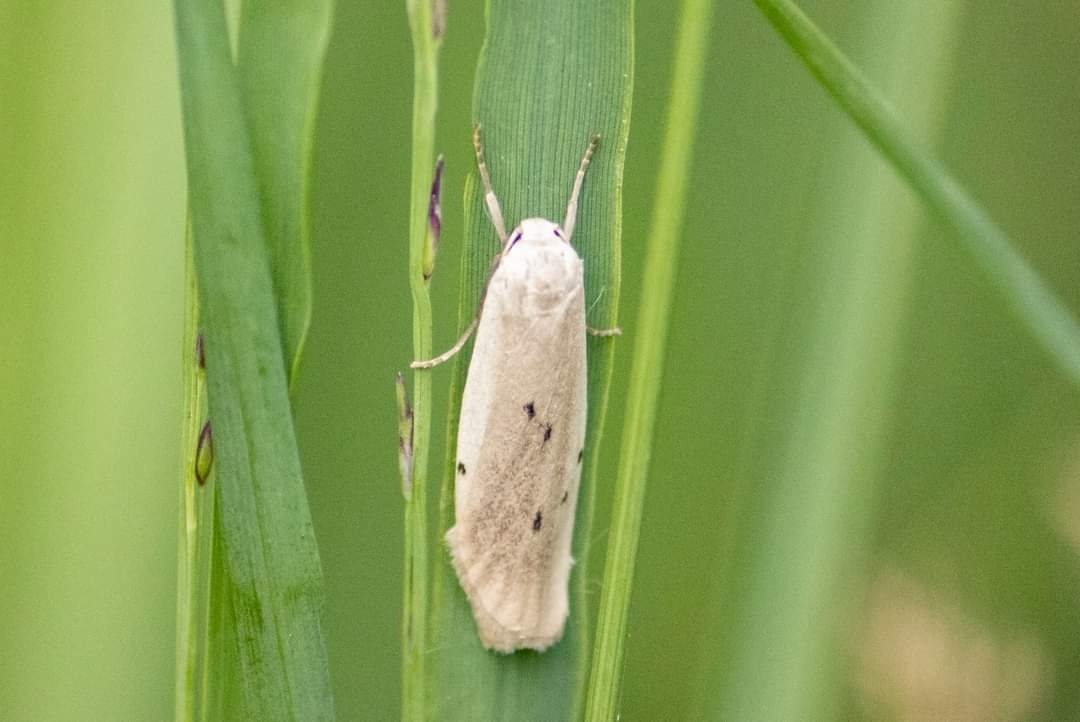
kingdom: Animalia
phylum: Arthropoda
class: Insecta
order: Lepidoptera
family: Erebidae
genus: Pelosia
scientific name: Pelosia muscerda
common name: Dotted footman
